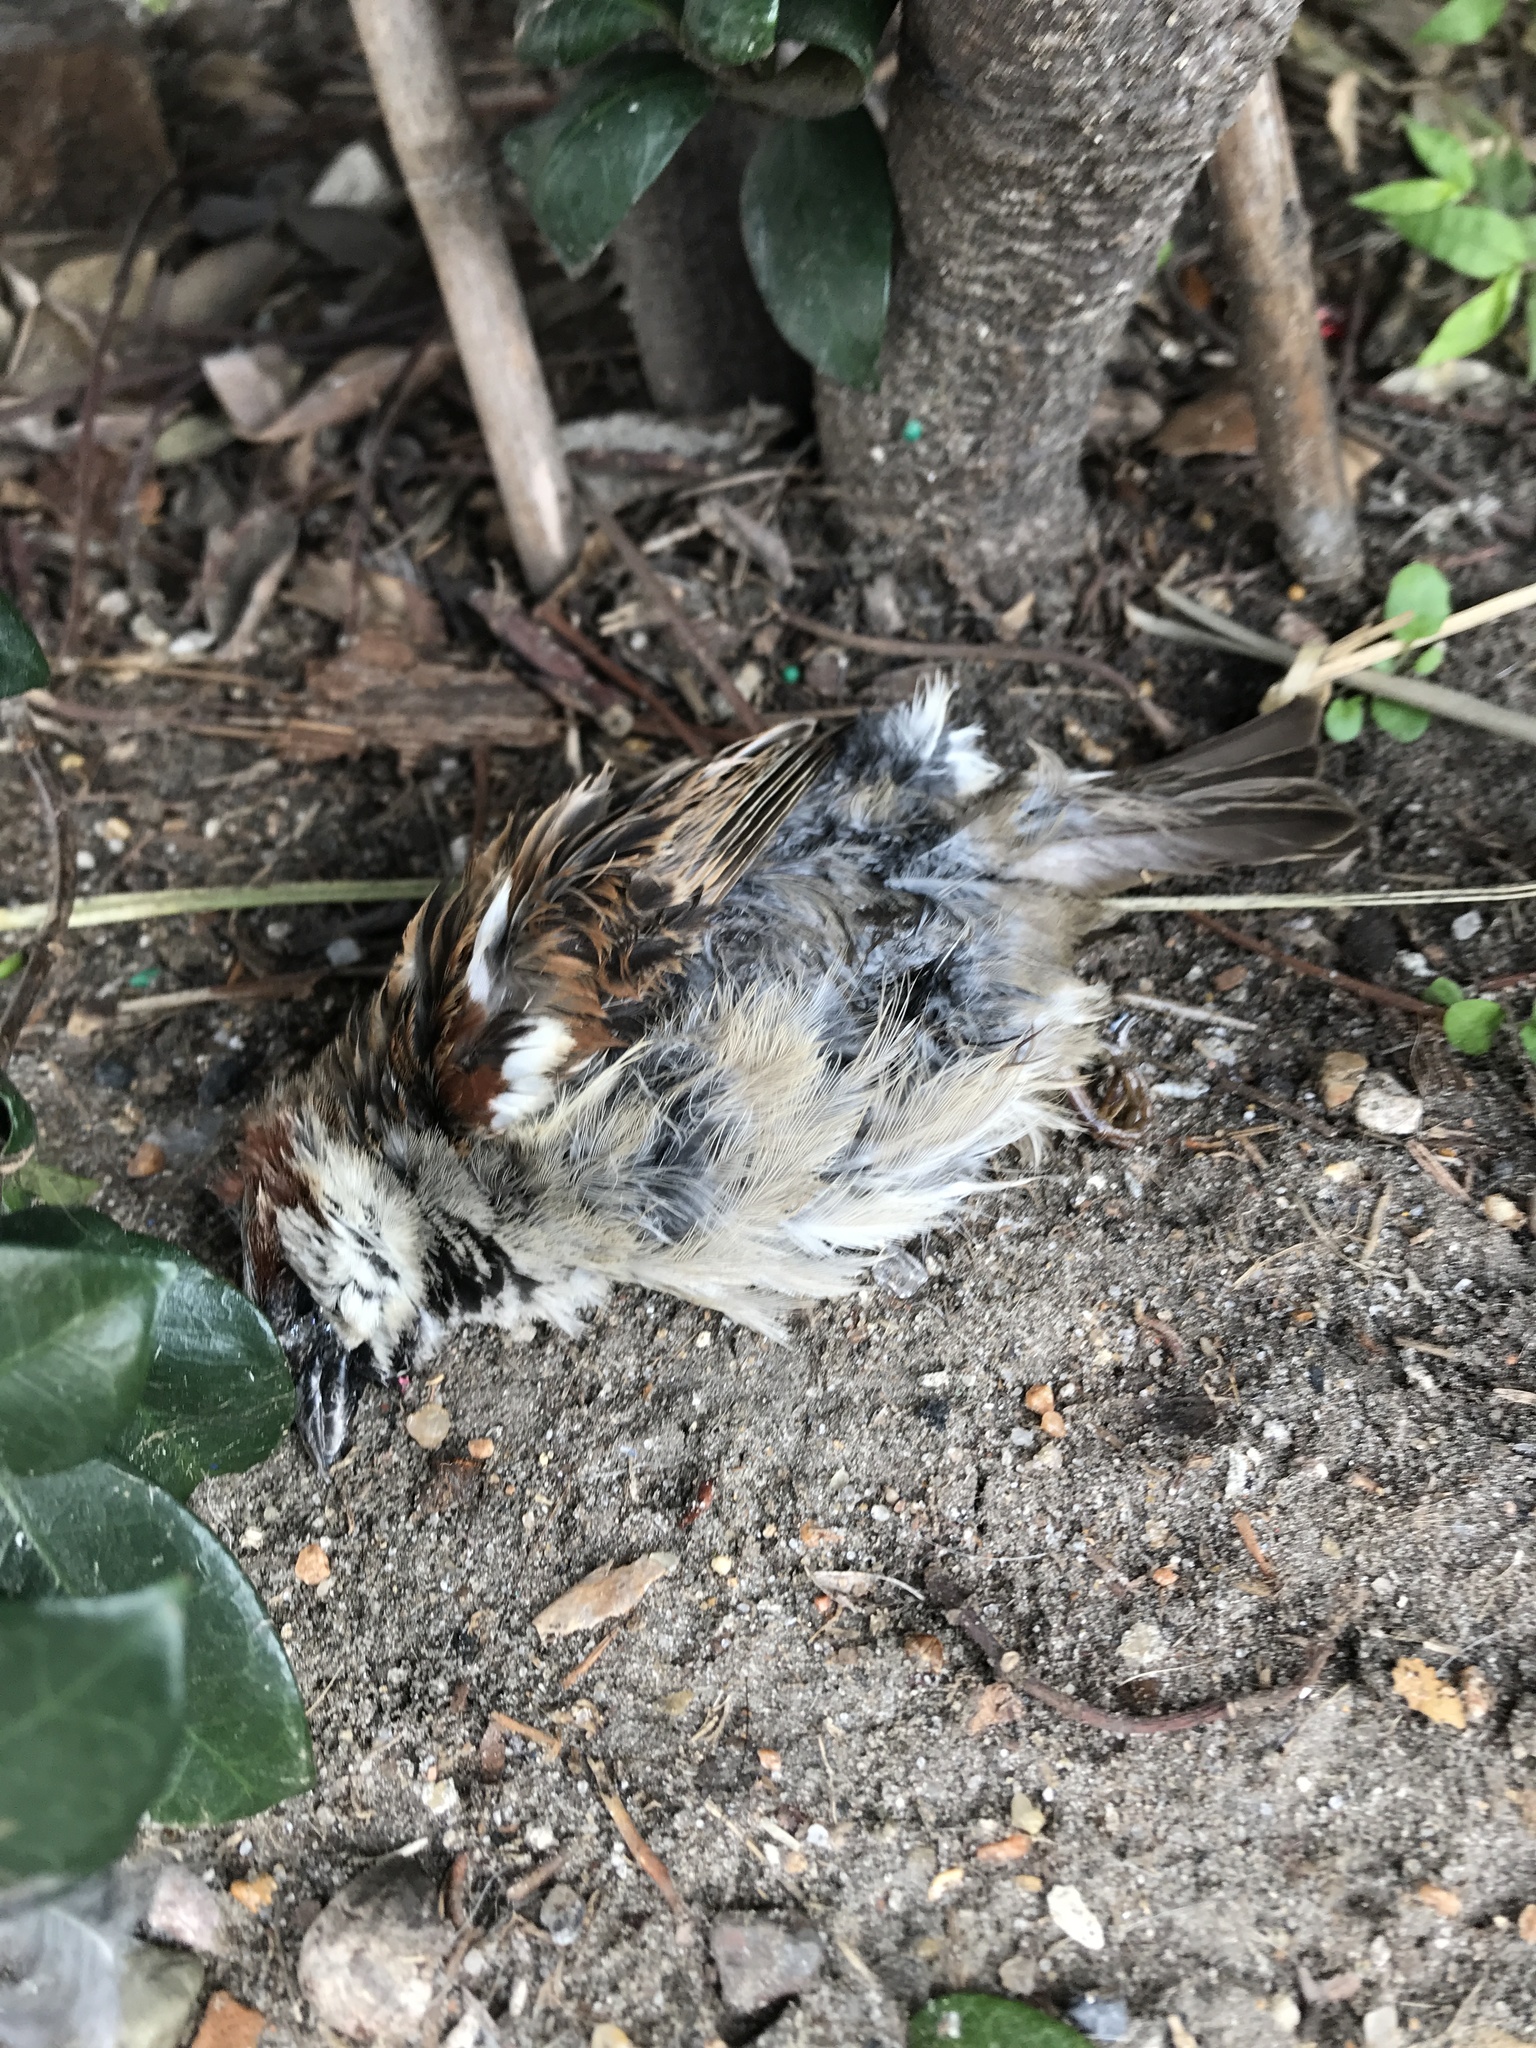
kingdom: Animalia
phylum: Chordata
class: Aves
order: Passeriformes
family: Passeridae
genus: Passer
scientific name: Passer domesticus
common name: House sparrow
